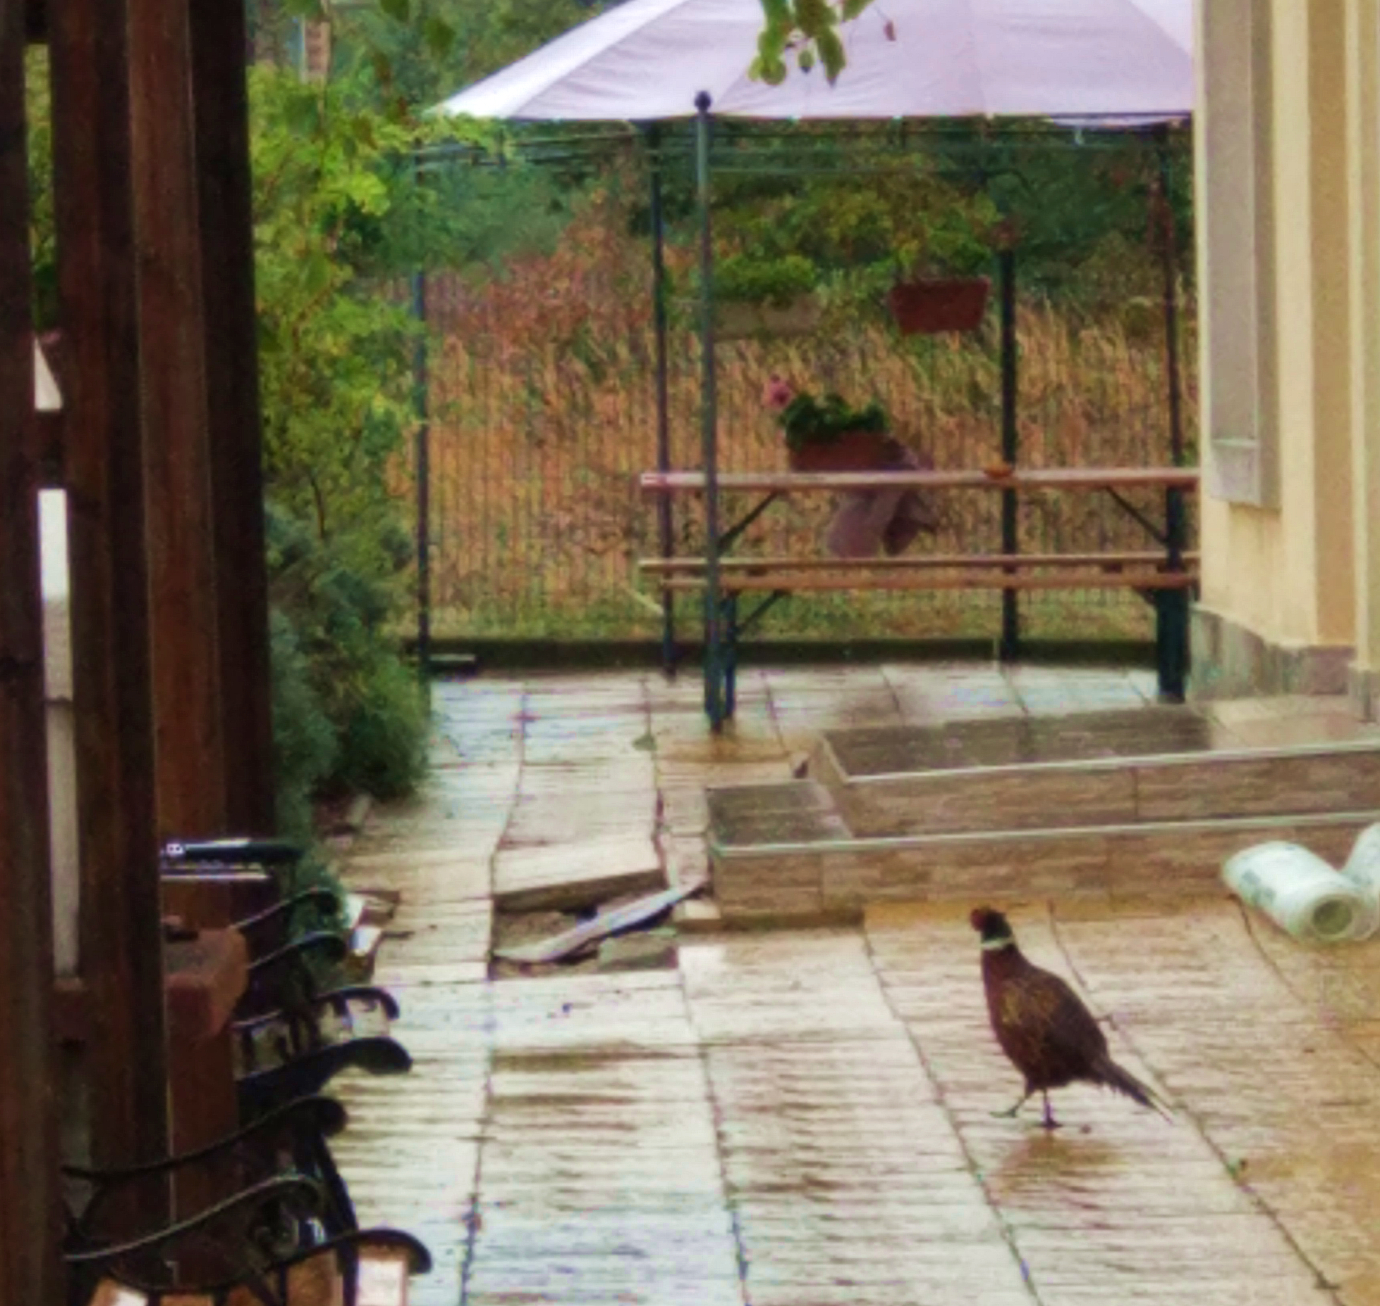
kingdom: Animalia
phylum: Chordata
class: Aves
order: Galliformes
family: Phasianidae
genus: Phasianus
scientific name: Phasianus colchicus
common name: Common pheasant
